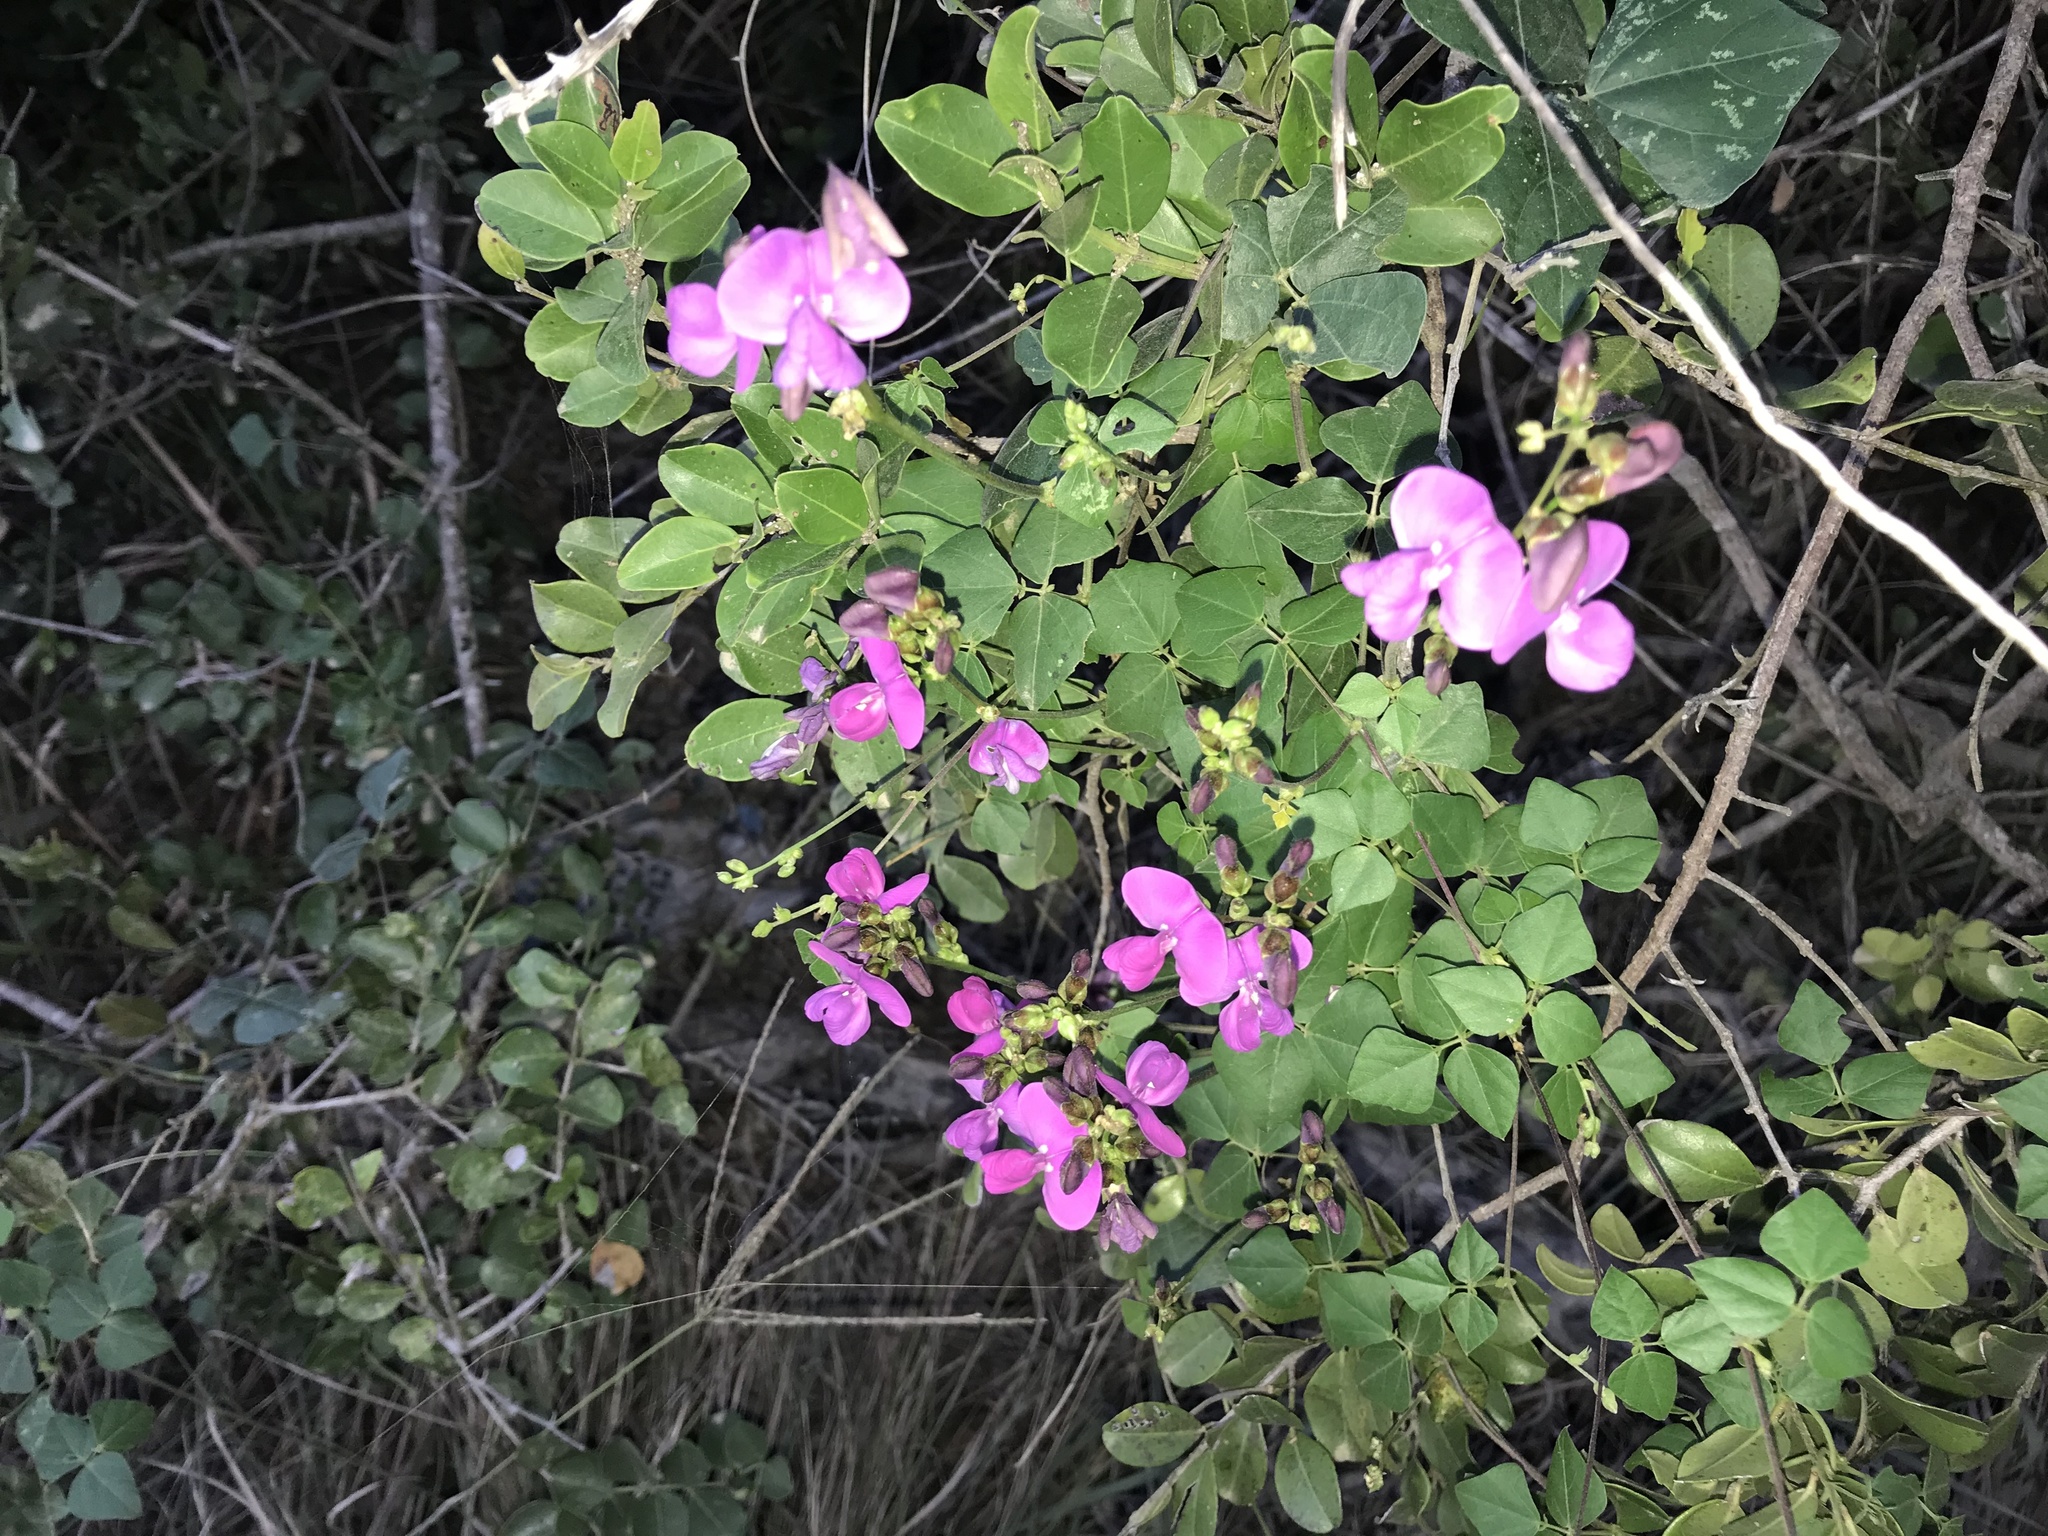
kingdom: Plantae
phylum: Tracheophyta
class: Magnoliopsida
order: Fabales
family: Fabaceae
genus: Dipogon
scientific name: Dipogon lignosus
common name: Okie bean
